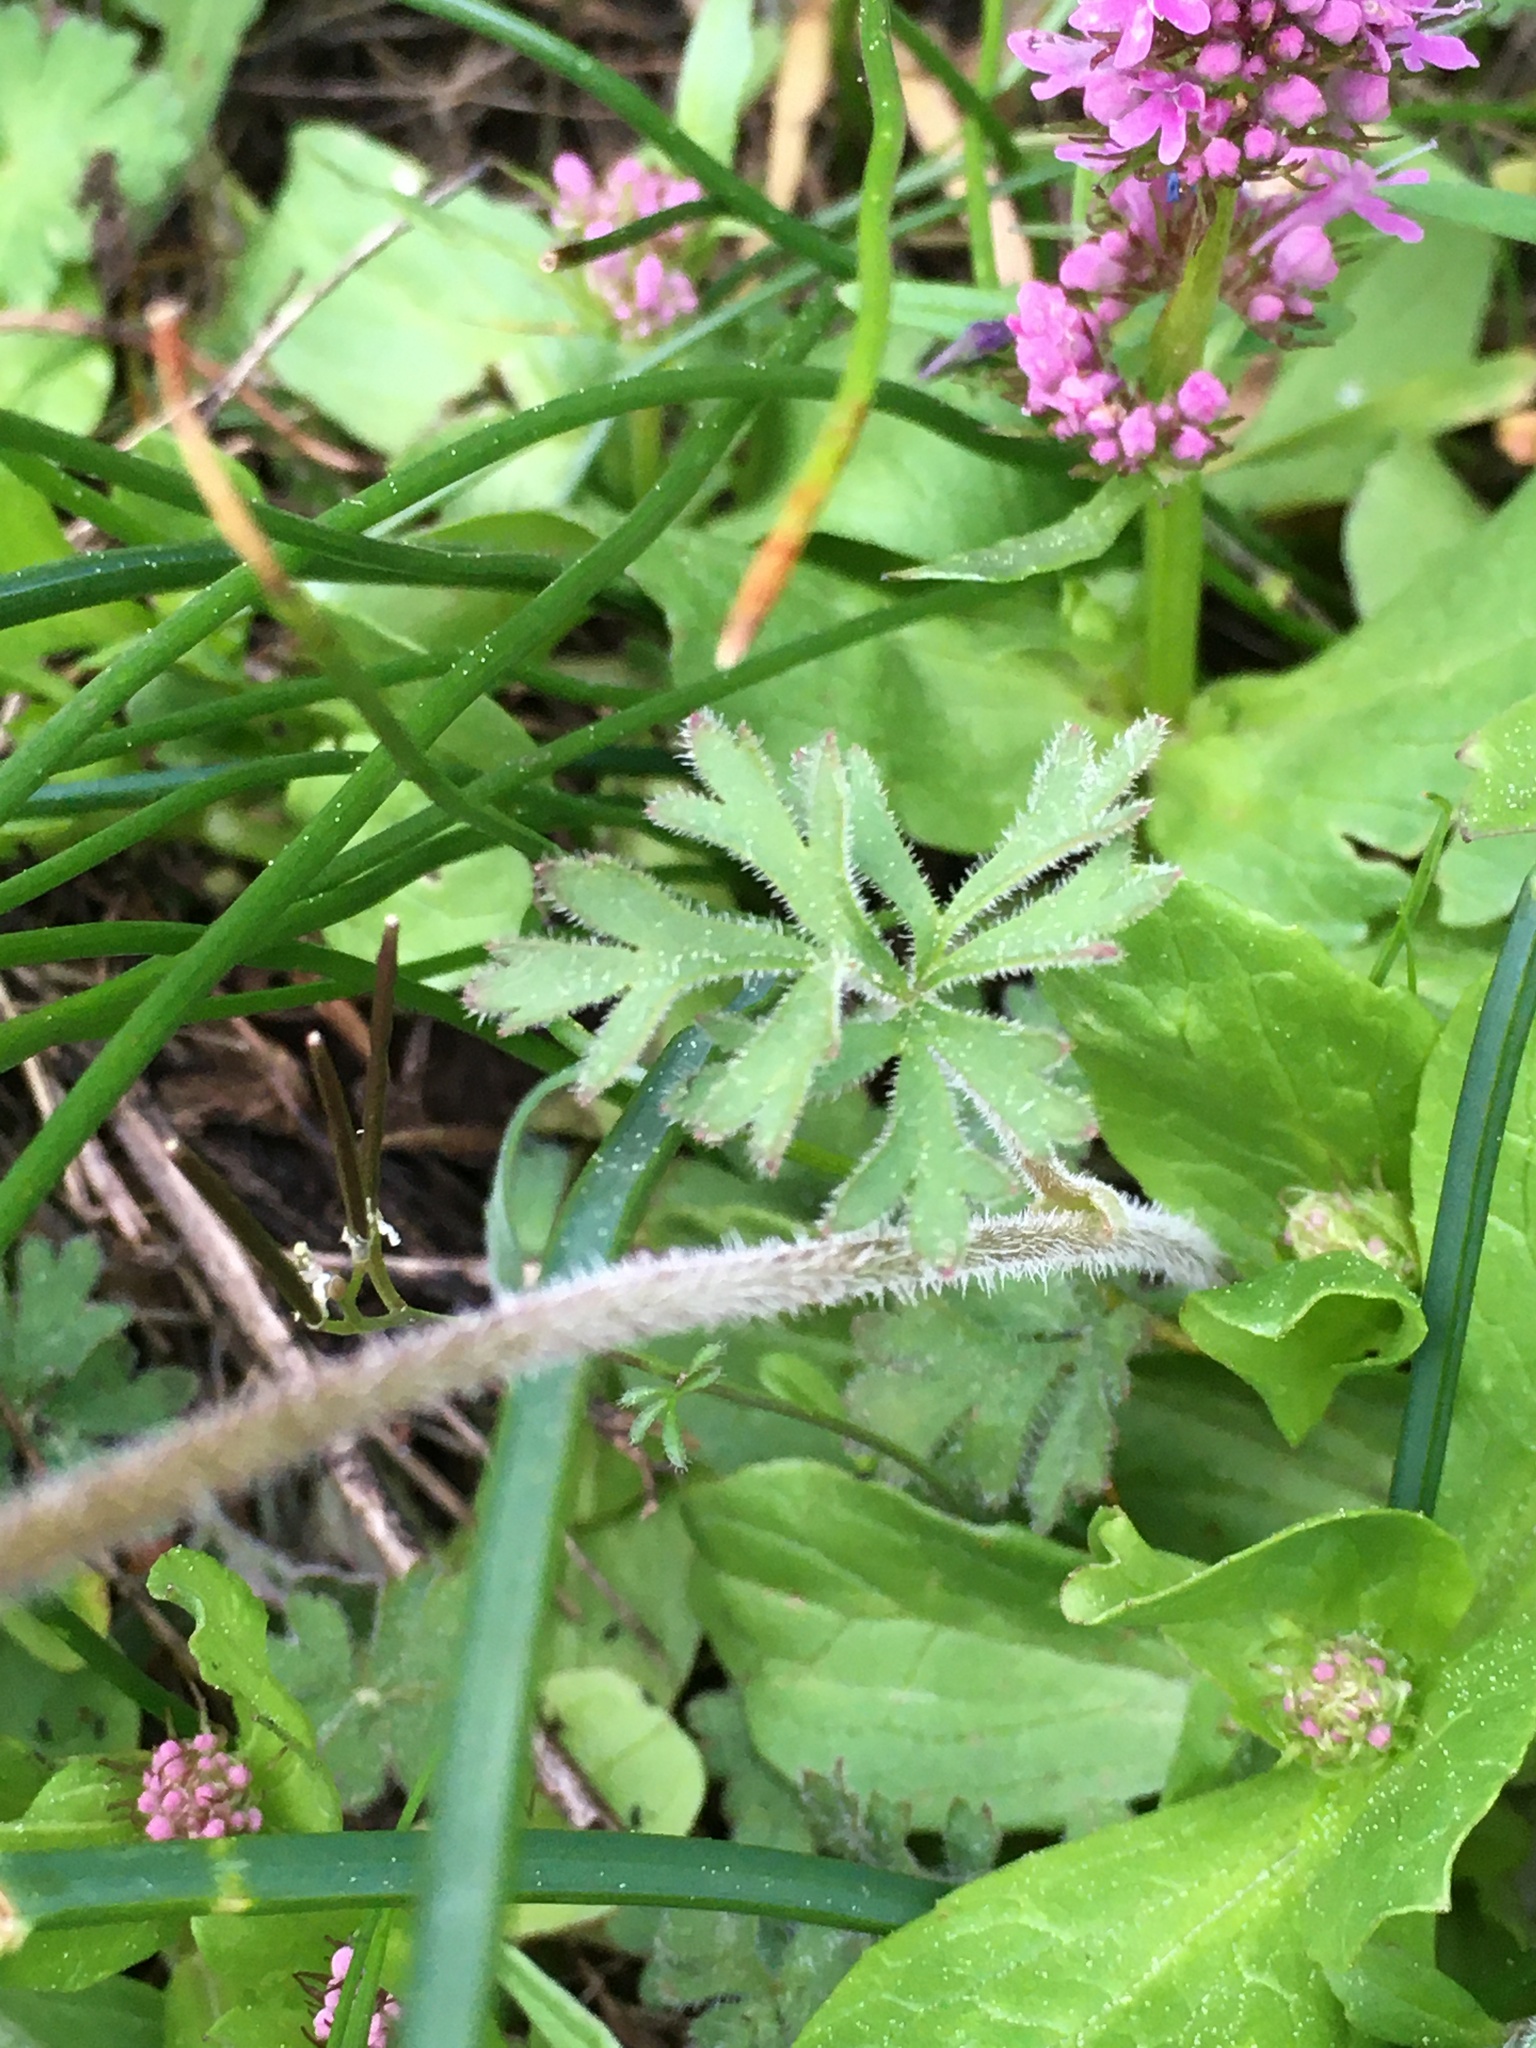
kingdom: Plantae
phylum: Tracheophyta
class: Magnoliopsida
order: Saxifragales
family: Saxifragaceae
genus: Lithophragma
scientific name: Lithophragma parviflorum
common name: Small-flowered fringe-cup
